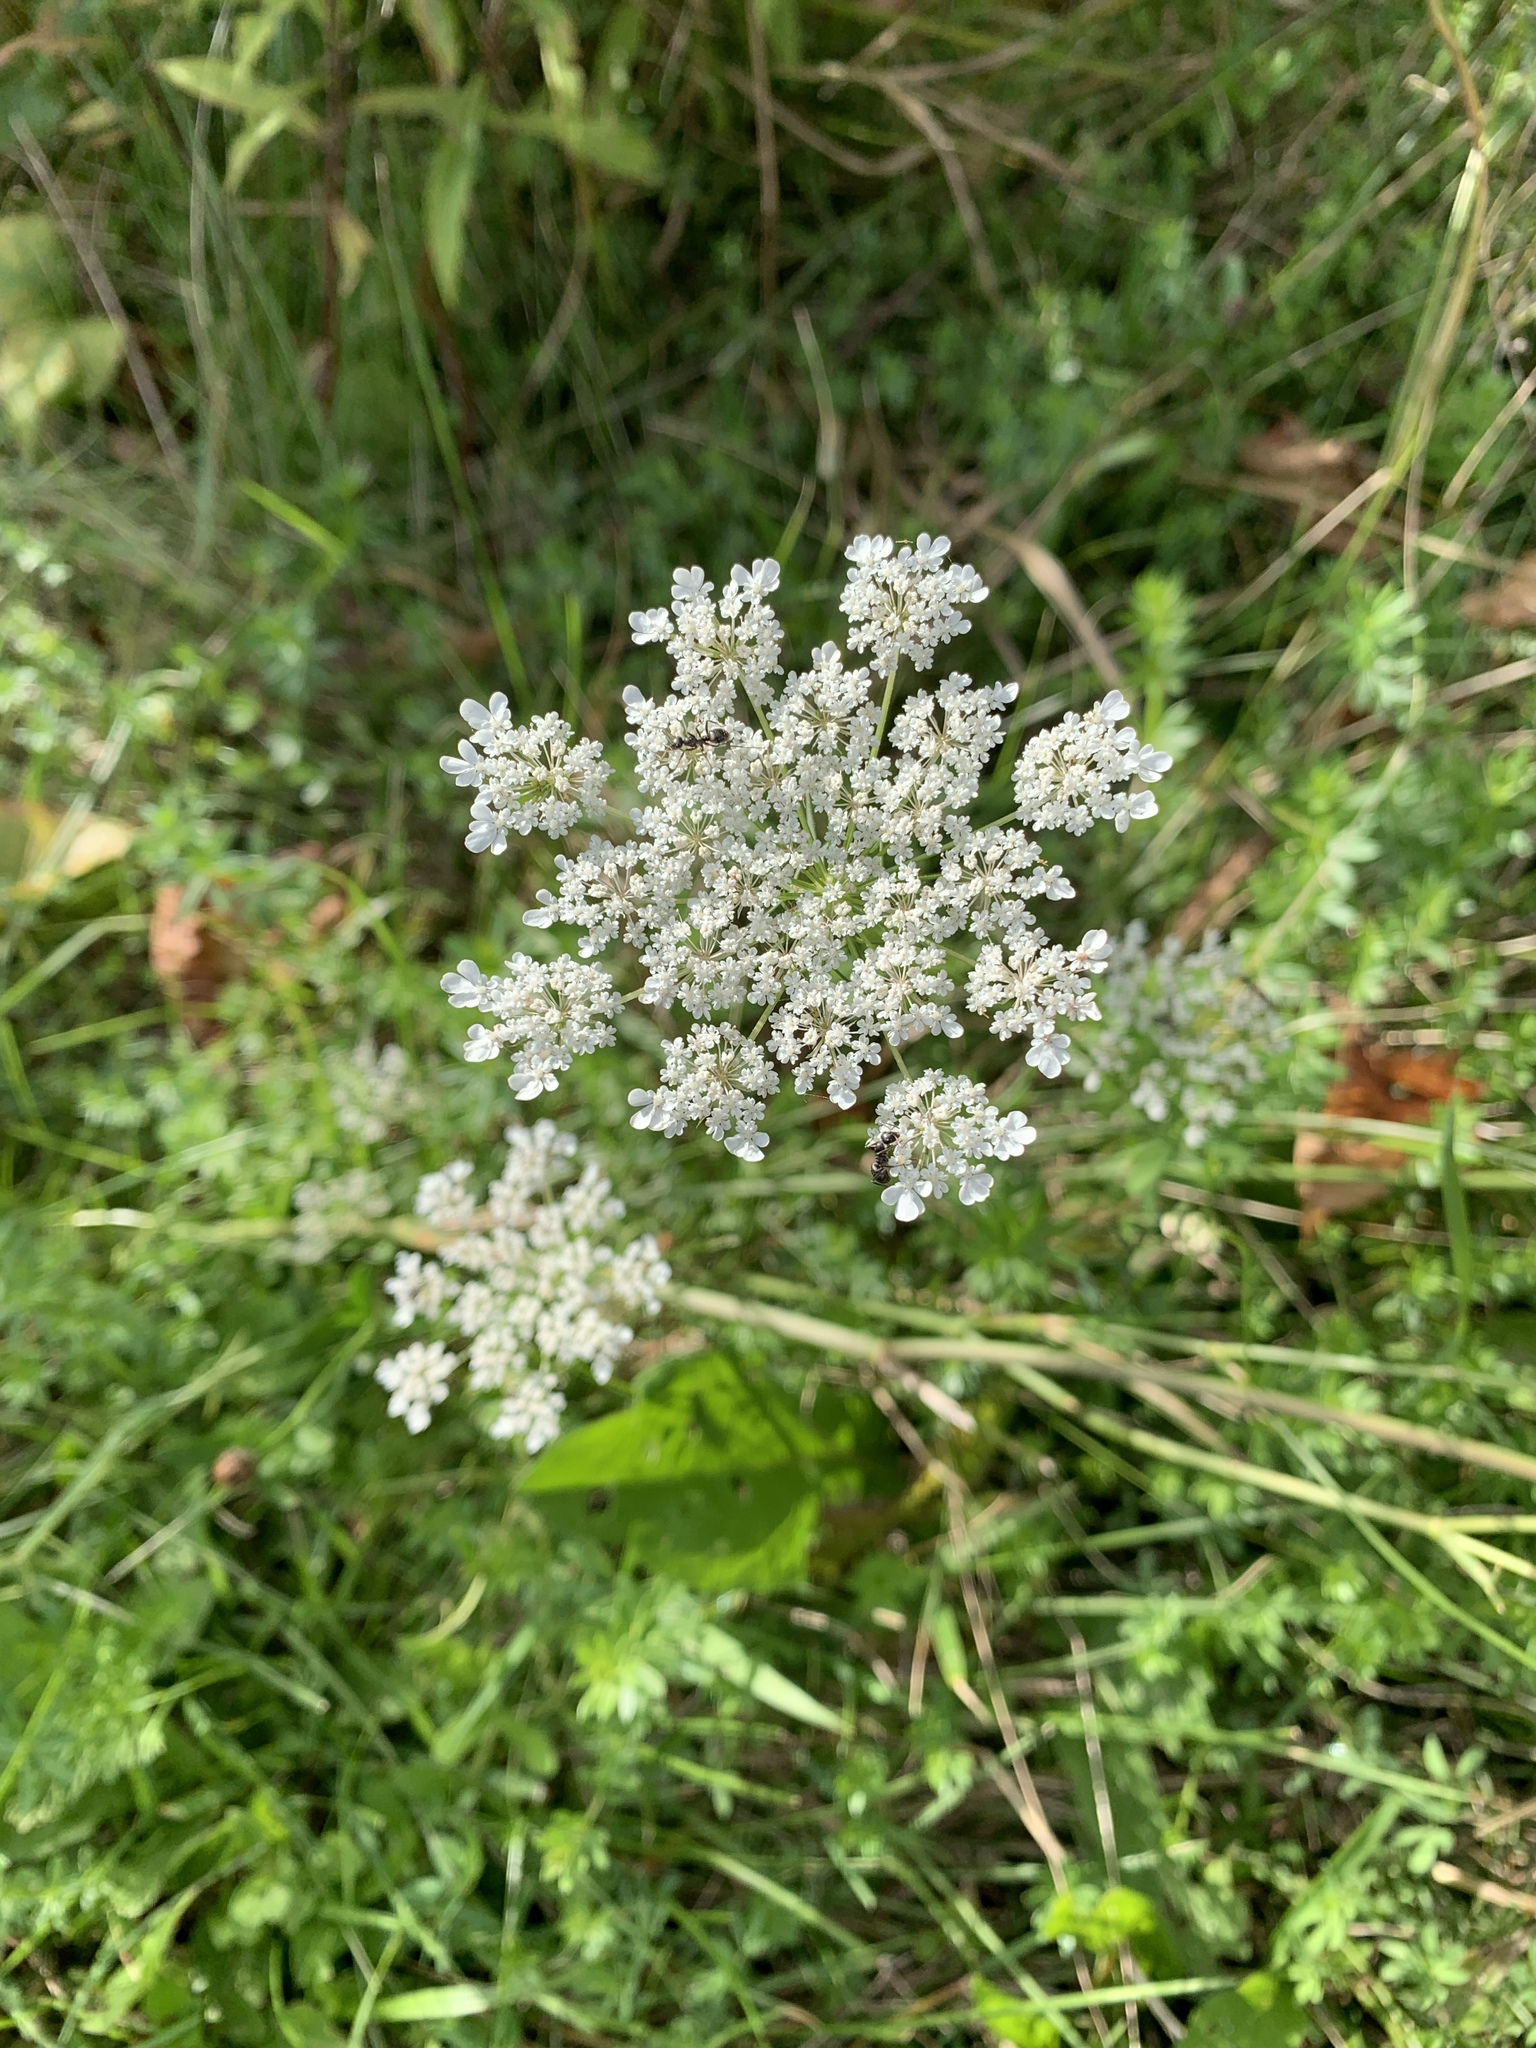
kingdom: Plantae
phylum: Tracheophyta
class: Magnoliopsida
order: Apiales
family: Apiaceae
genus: Daucus
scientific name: Daucus carota
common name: Wild carrot
